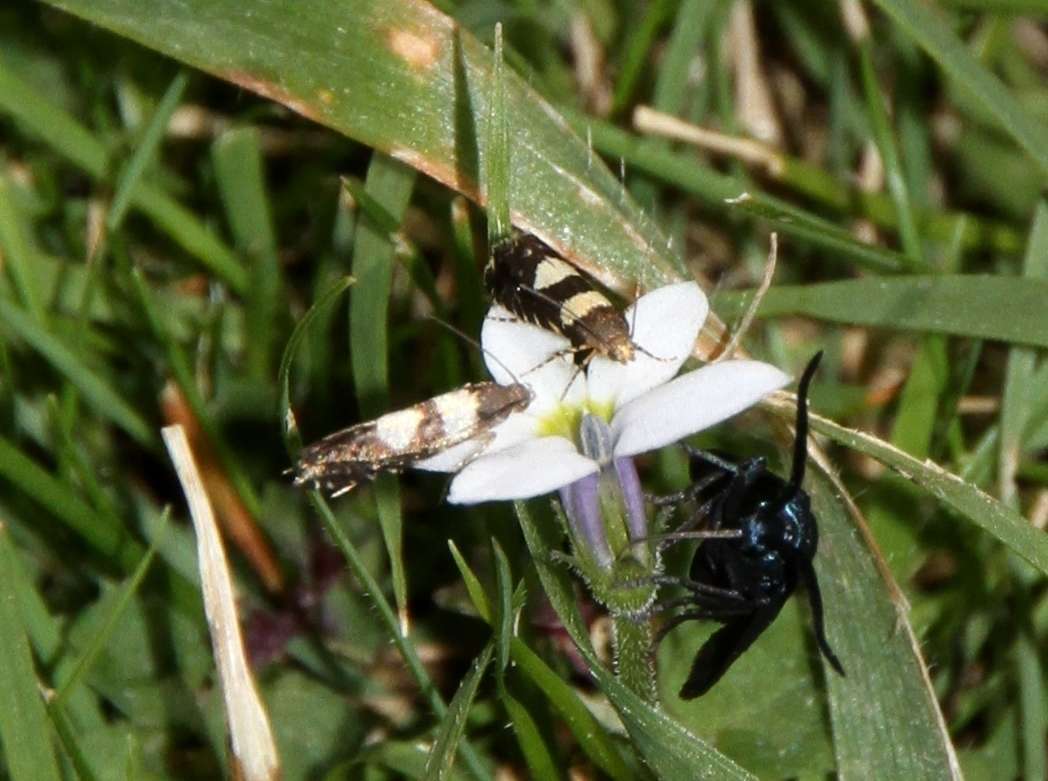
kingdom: Animalia
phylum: Arthropoda
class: Insecta
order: Lepidoptera
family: Zygaenidae
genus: Pollanisus
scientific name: Pollanisus viridipulverulenta
